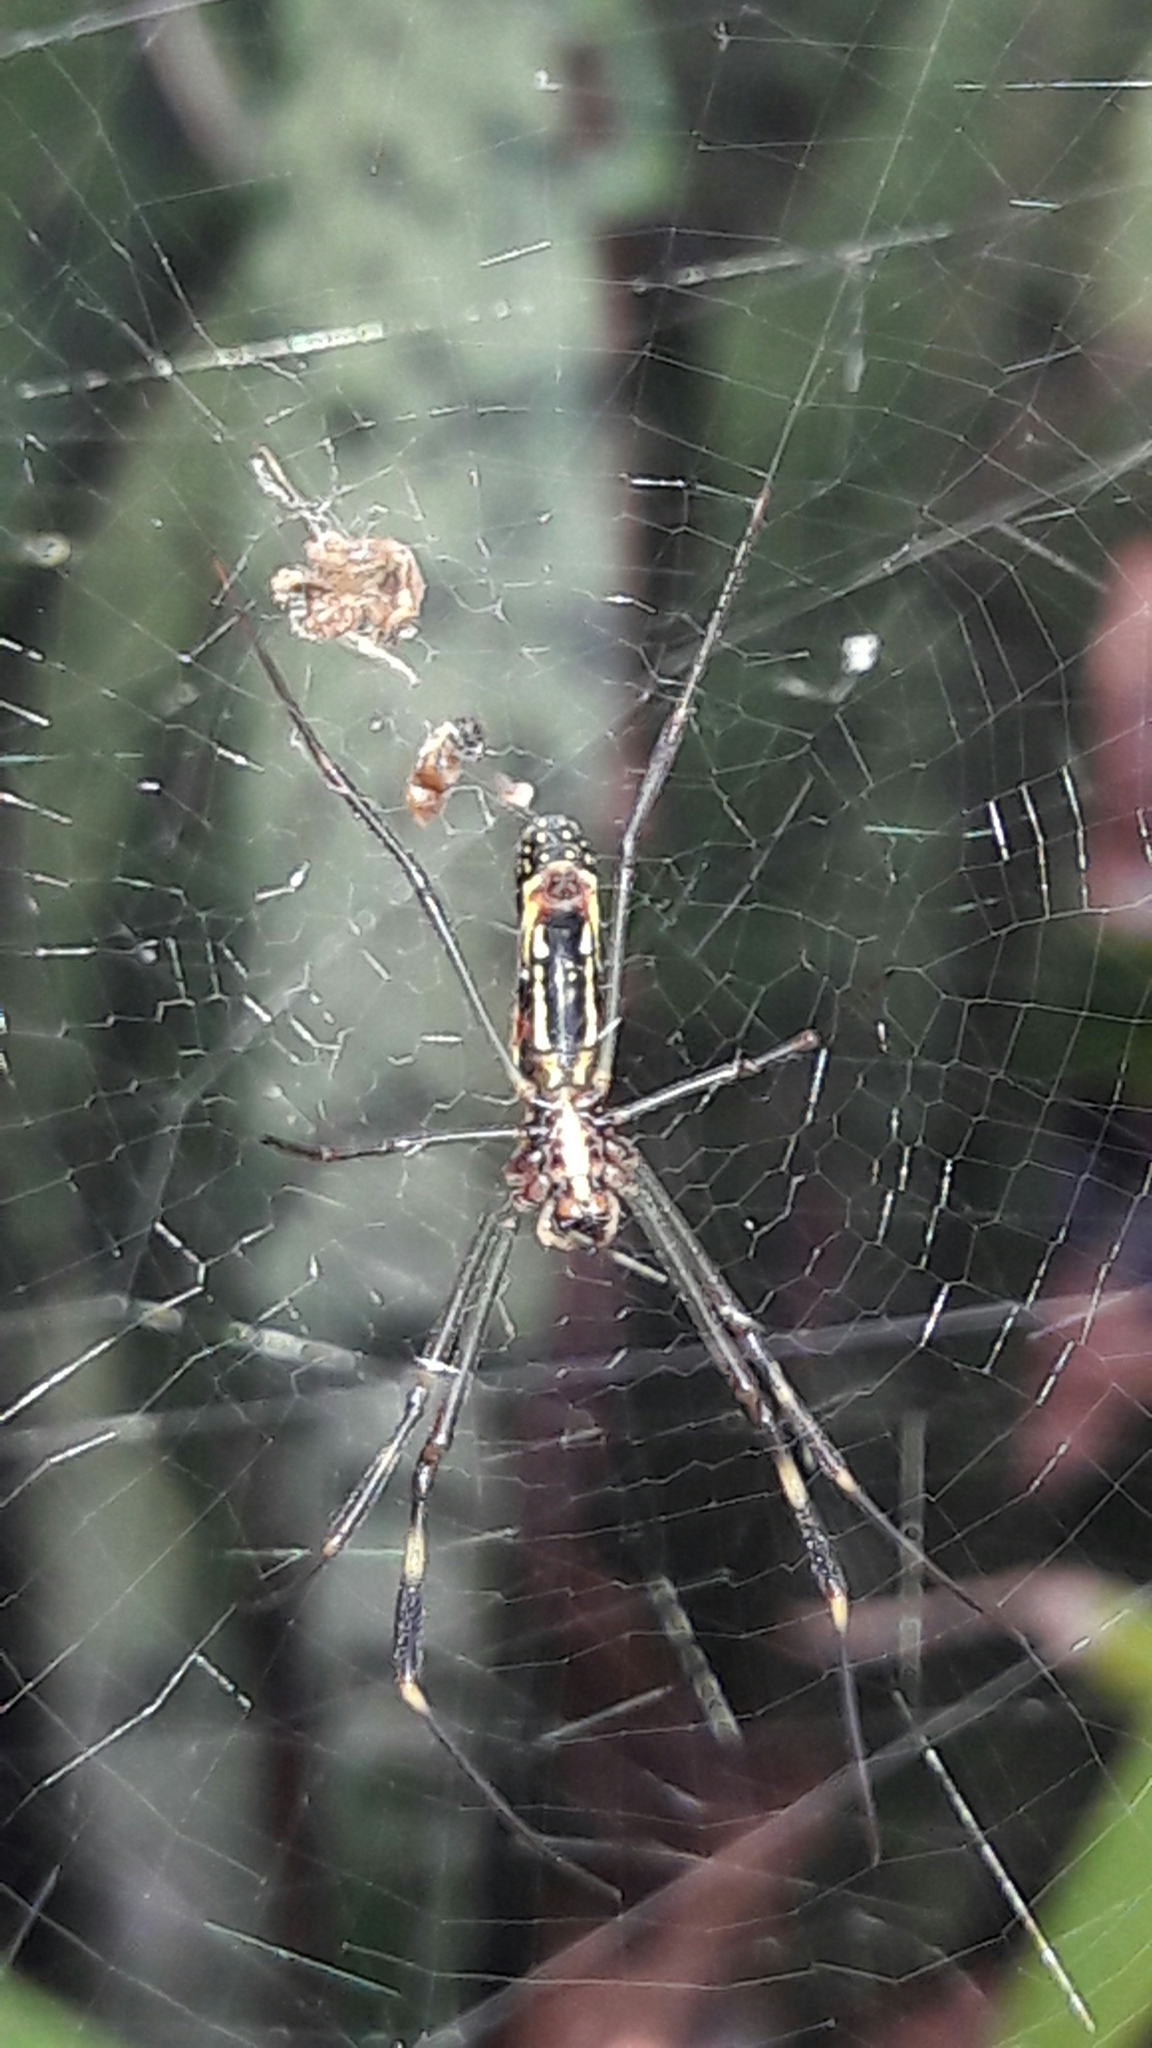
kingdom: Animalia
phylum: Arthropoda
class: Arachnida
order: Araneae
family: Araneidae
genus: Trichonephila
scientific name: Trichonephila clavipes
